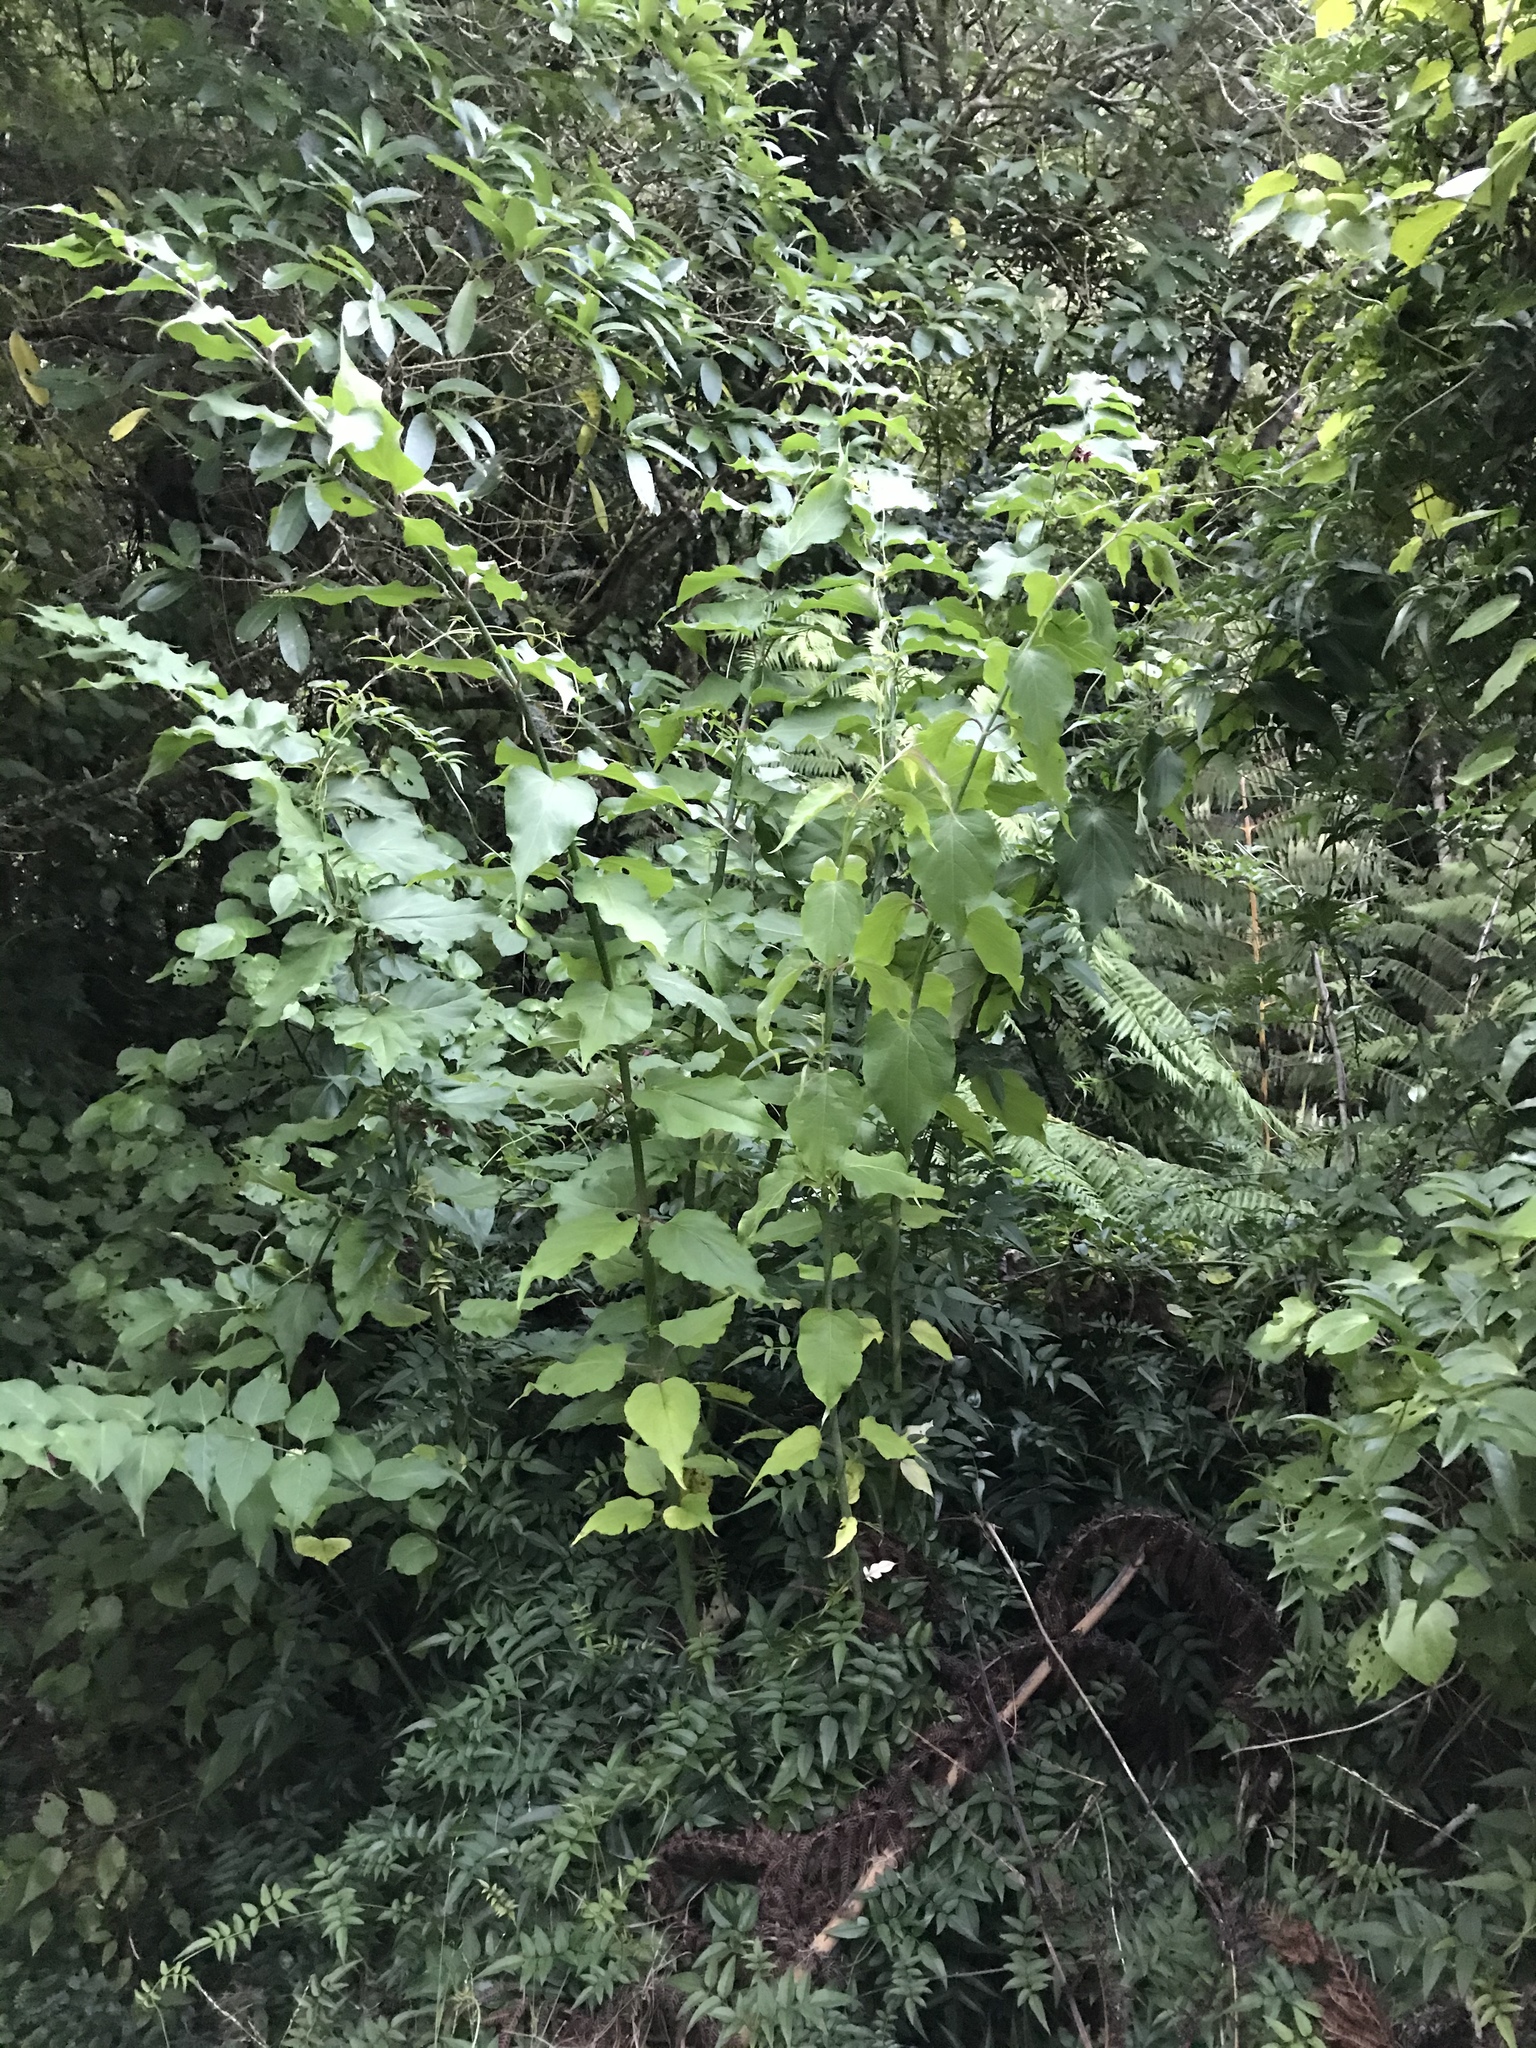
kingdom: Plantae
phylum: Tracheophyta
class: Magnoliopsida
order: Dipsacales
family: Caprifoliaceae
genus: Leycesteria
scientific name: Leycesteria formosa
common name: Himalayan honeysuckle
